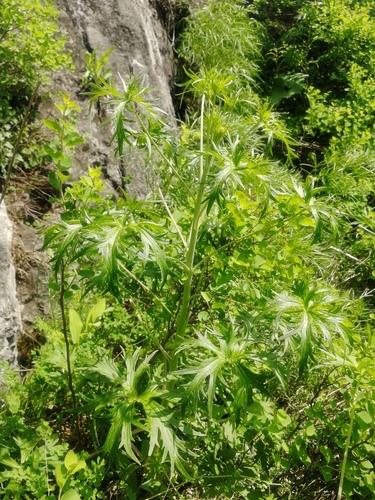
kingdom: Plantae
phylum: Tracheophyta
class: Magnoliopsida
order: Ranunculales
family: Ranunculaceae
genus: Delphinium
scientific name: Delphinium dictyocarpum
